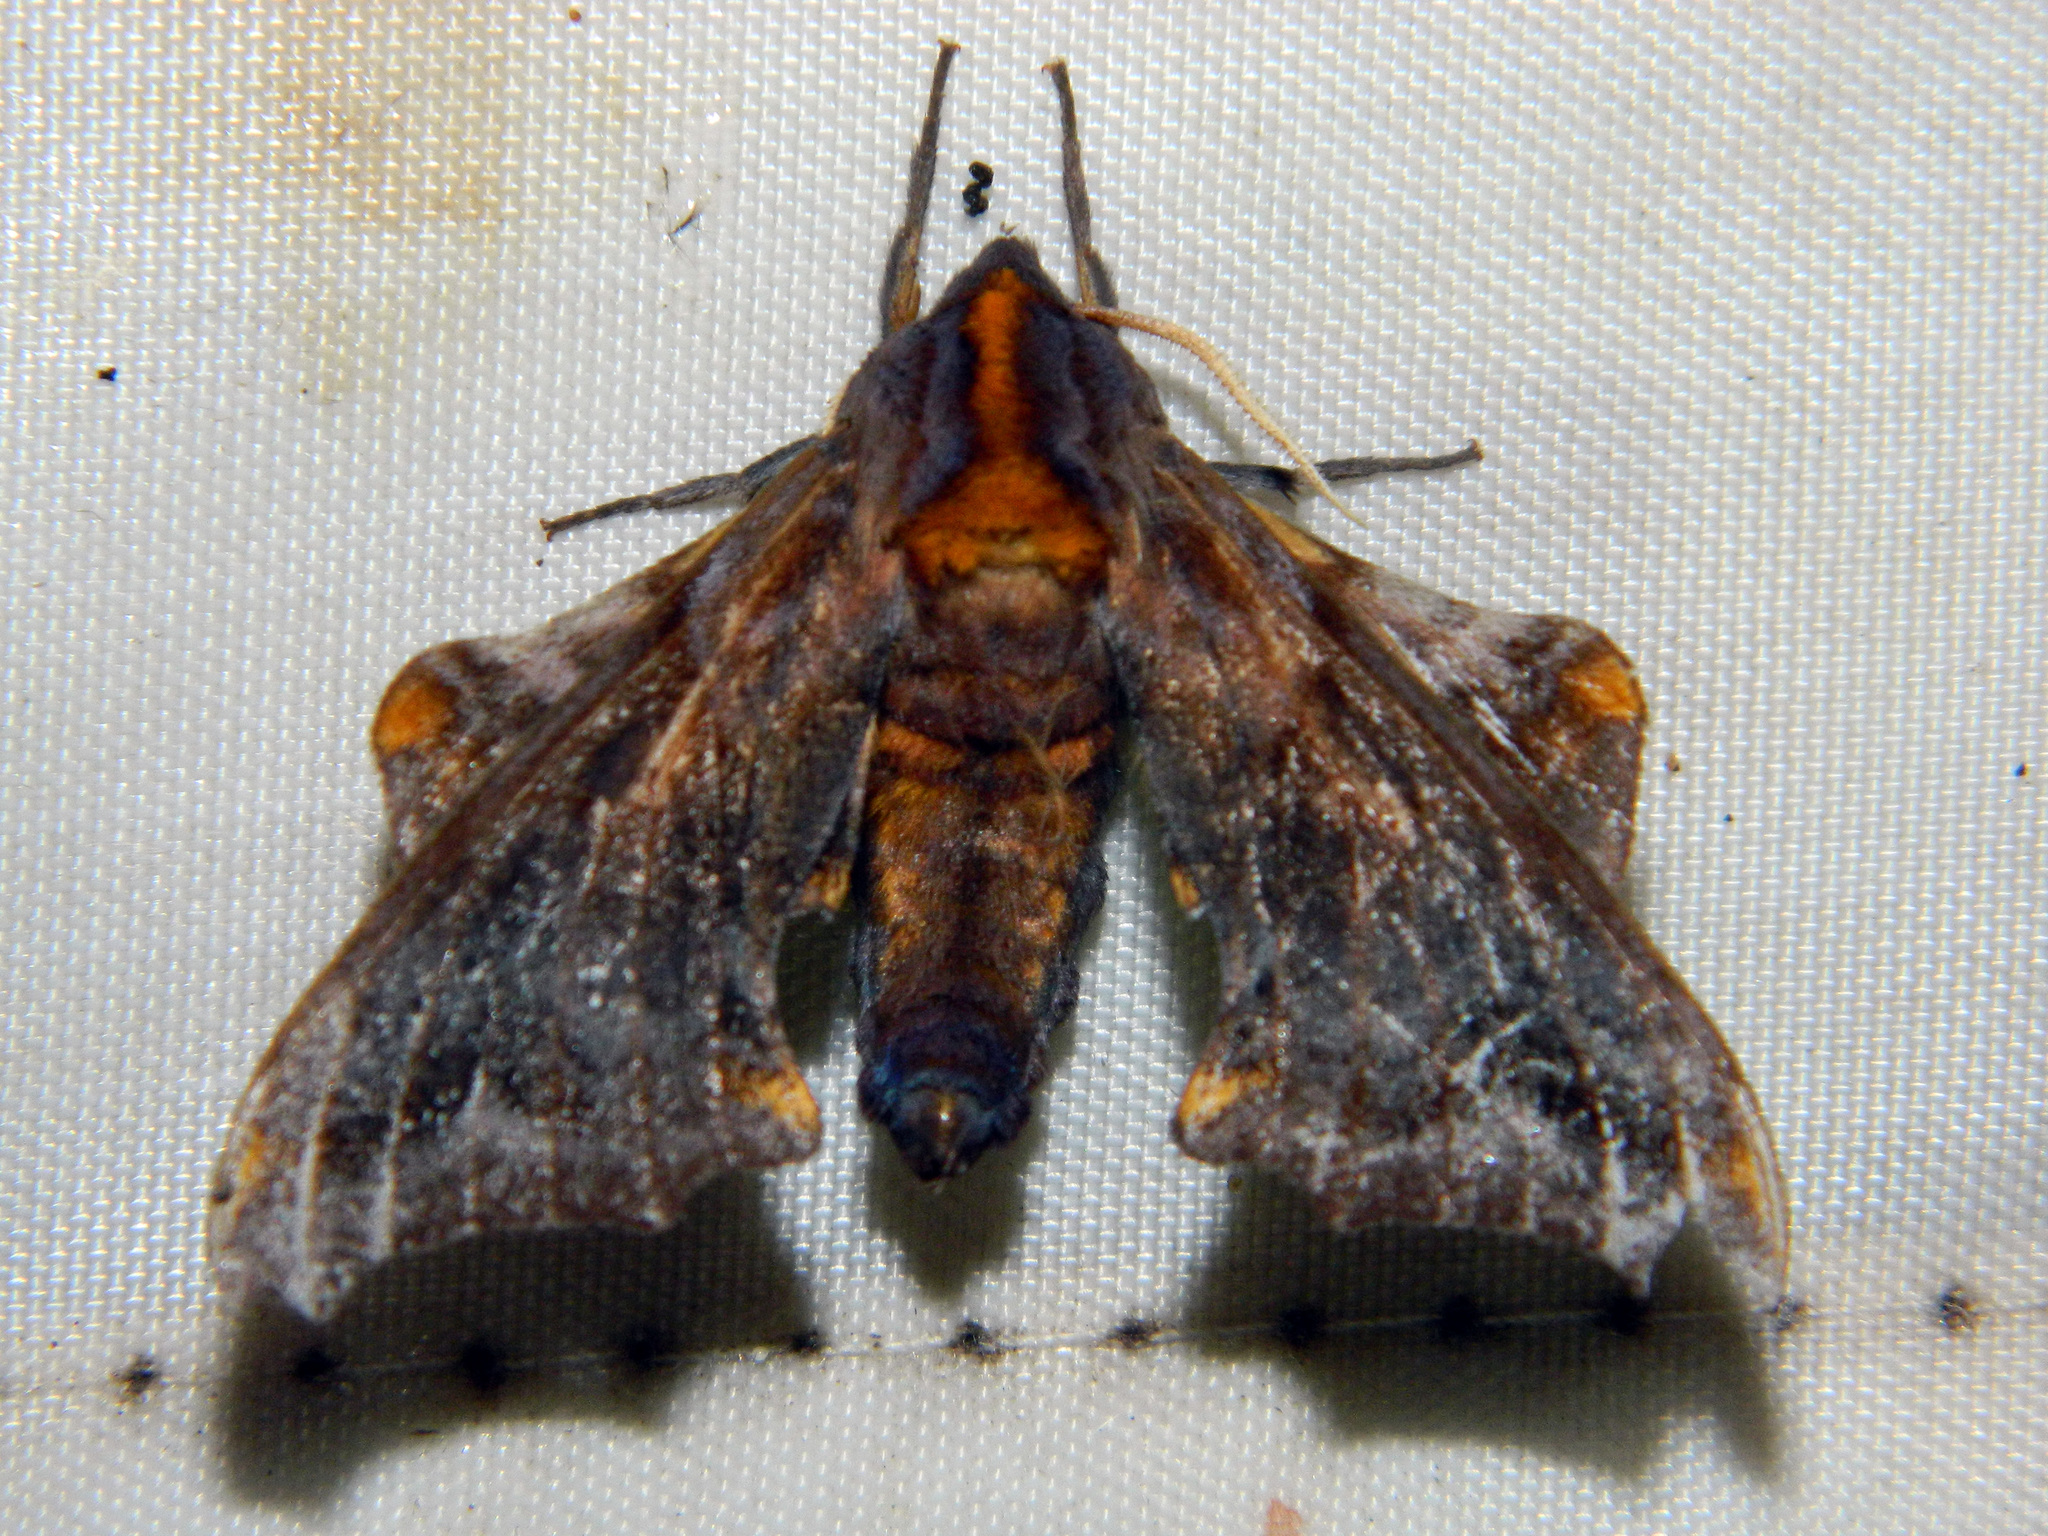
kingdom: Animalia
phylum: Arthropoda
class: Insecta
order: Lepidoptera
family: Sphingidae
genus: Paonias
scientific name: Paonias myops
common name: Small-eyed sphinx
